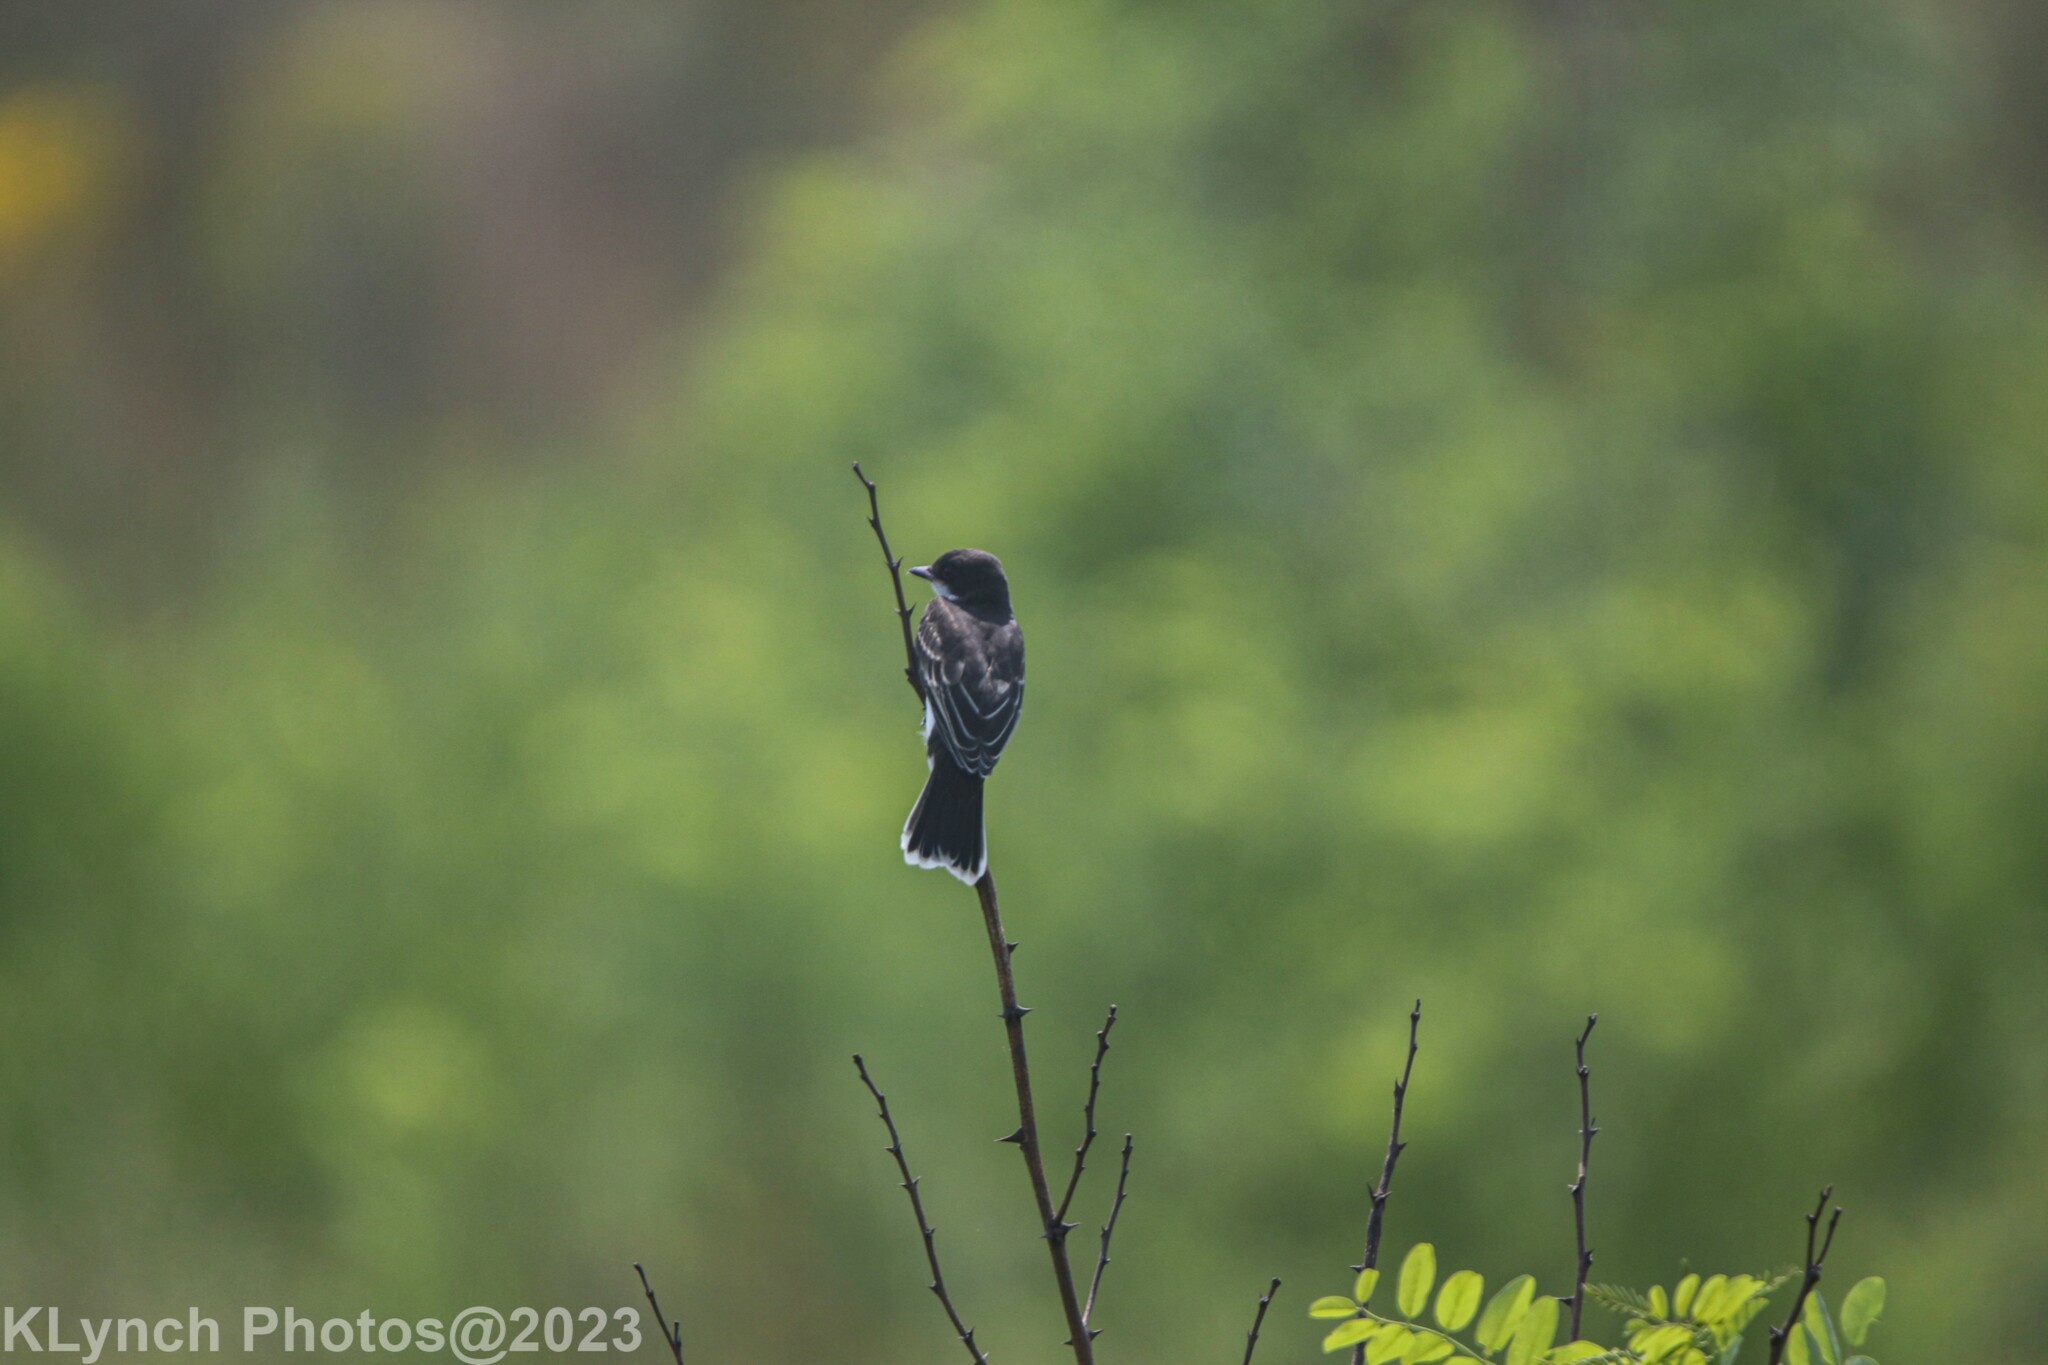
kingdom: Animalia
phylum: Chordata
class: Aves
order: Passeriformes
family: Tyrannidae
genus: Tyrannus
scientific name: Tyrannus tyrannus
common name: Eastern kingbird
